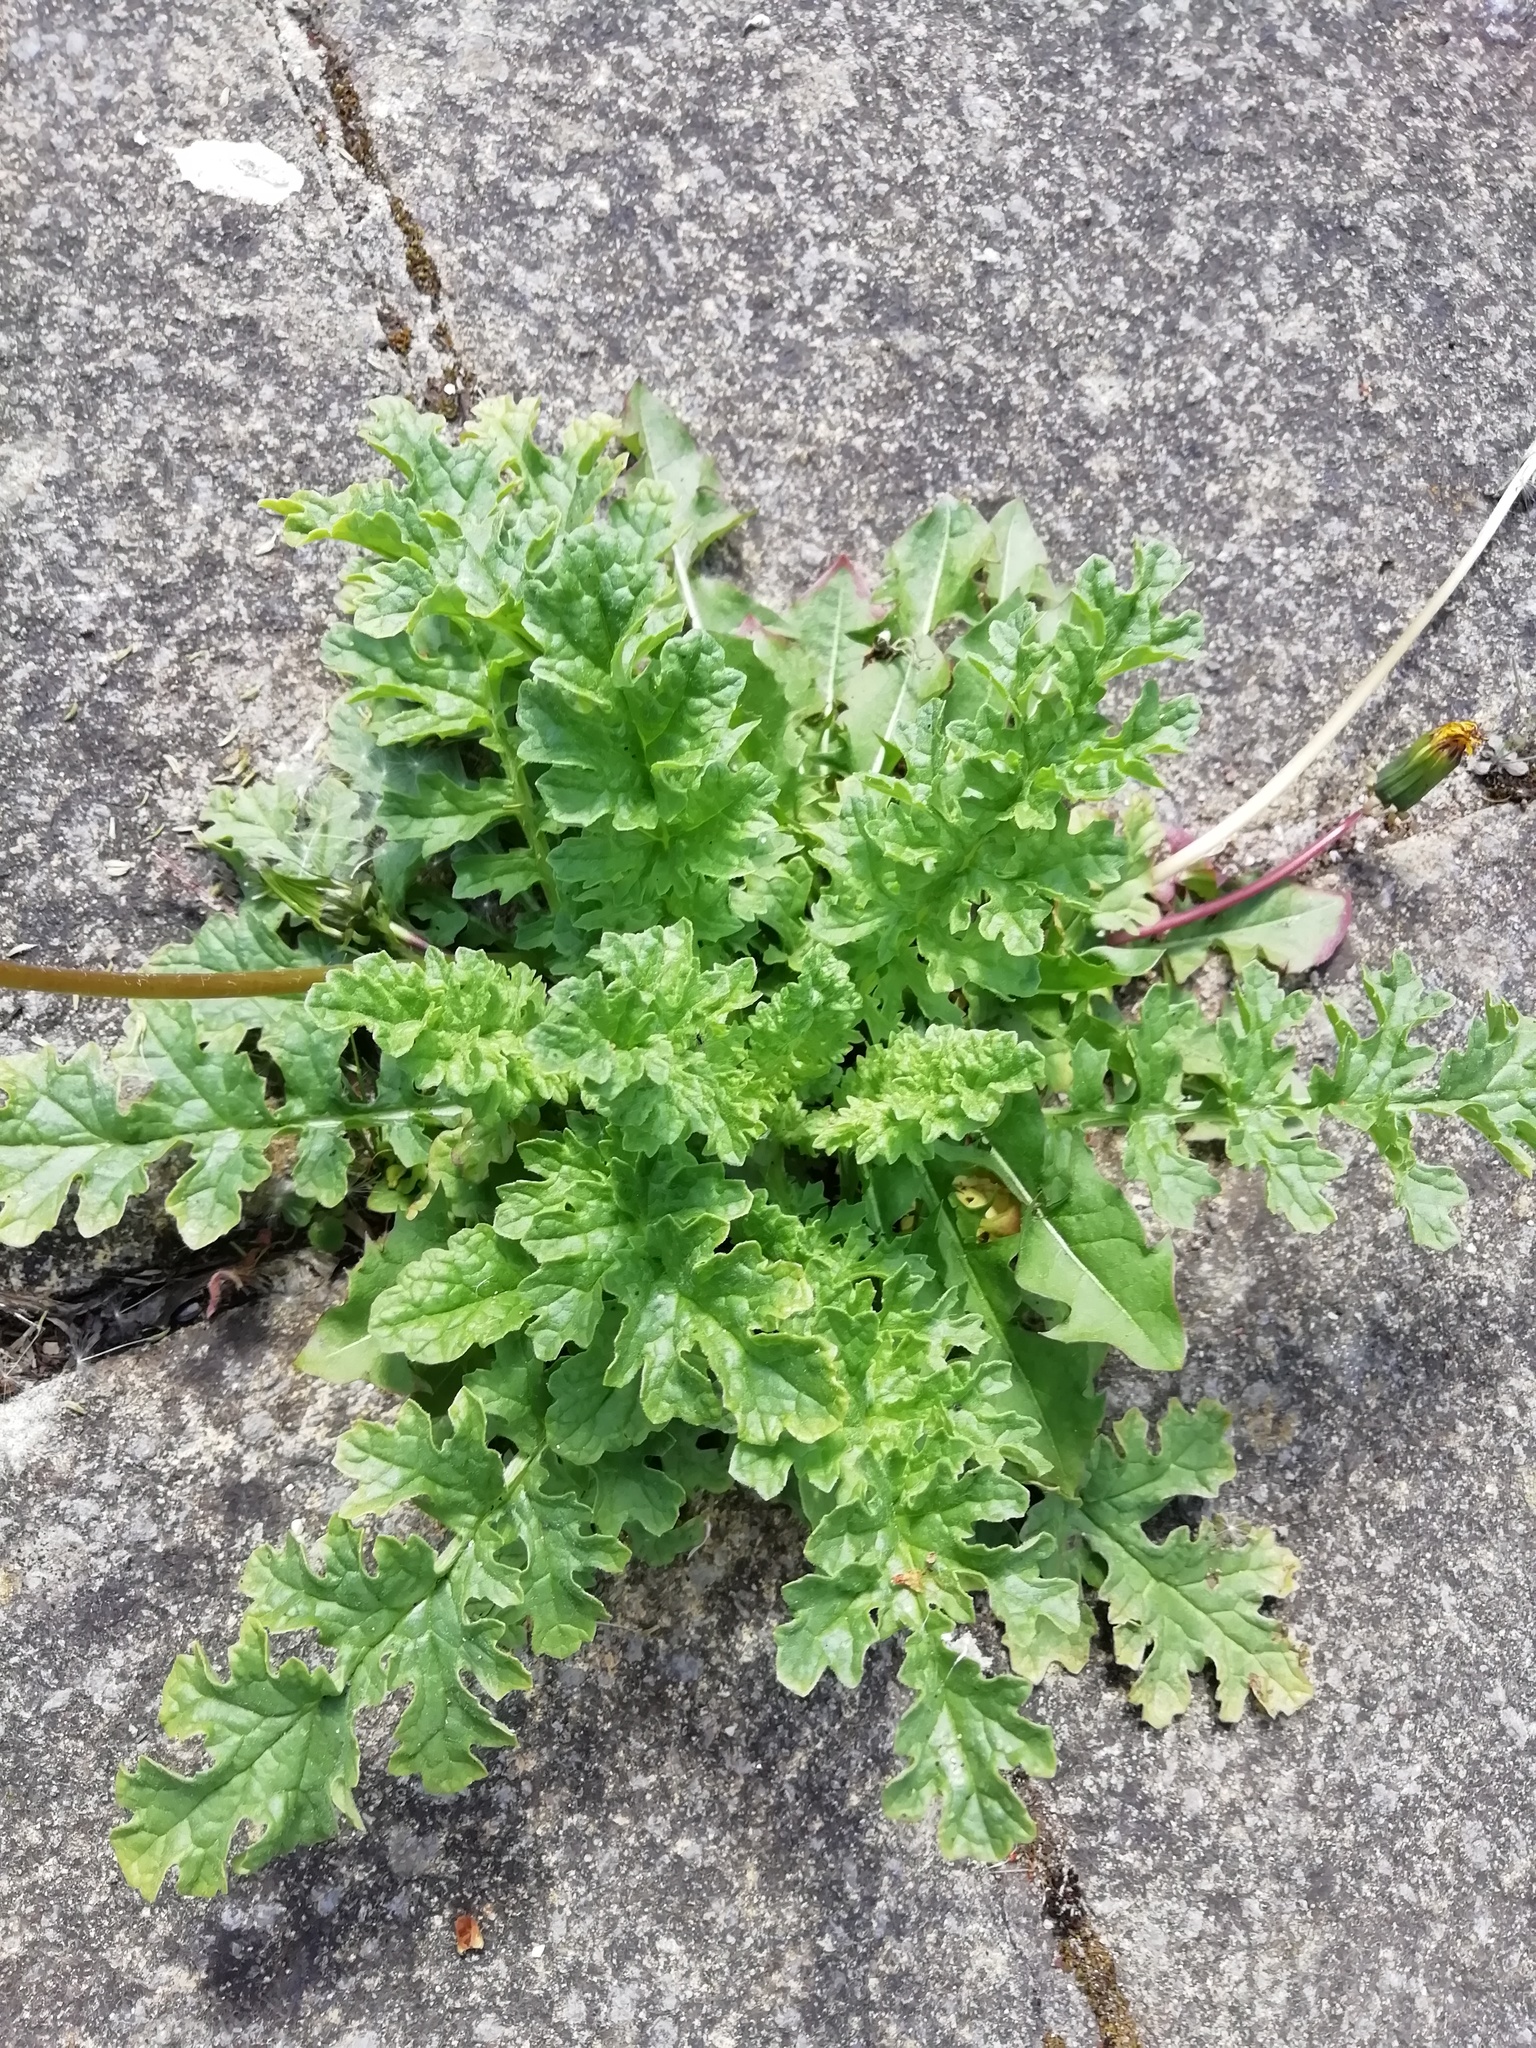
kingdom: Plantae
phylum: Tracheophyta
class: Magnoliopsida
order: Asterales
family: Asteraceae
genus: Jacobaea
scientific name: Jacobaea vulgaris
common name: Stinking willie
